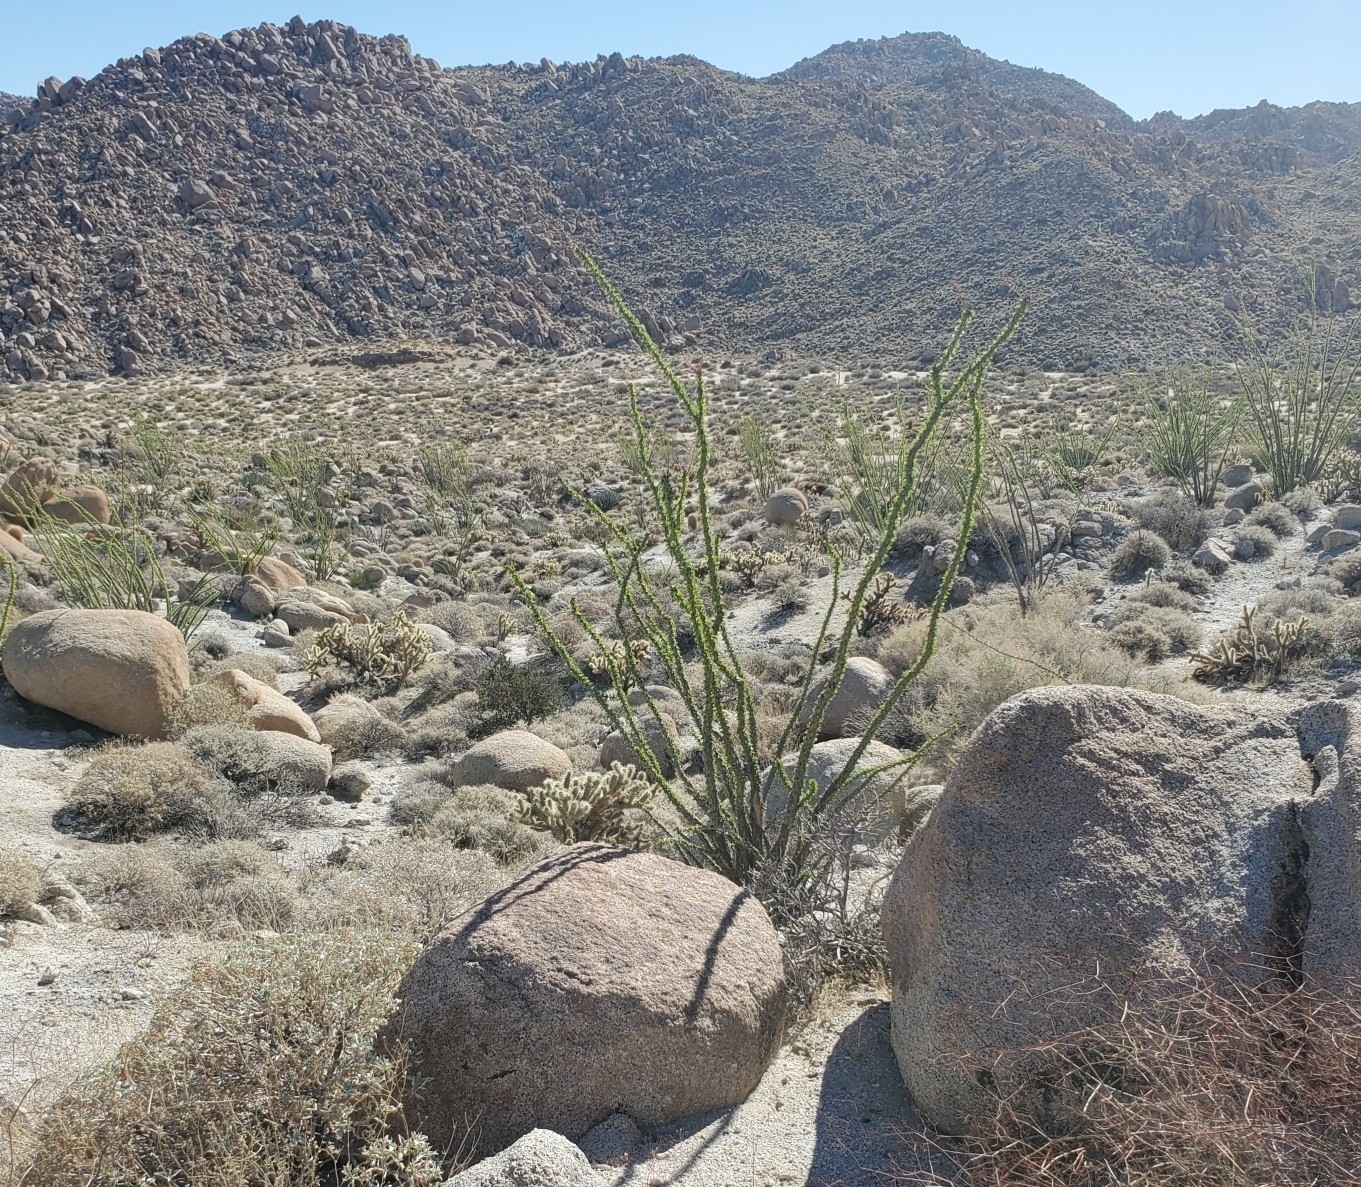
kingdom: Plantae
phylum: Tracheophyta
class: Magnoliopsida
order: Ericales
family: Fouquieriaceae
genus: Fouquieria
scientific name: Fouquieria splendens
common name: Vine-cactus
